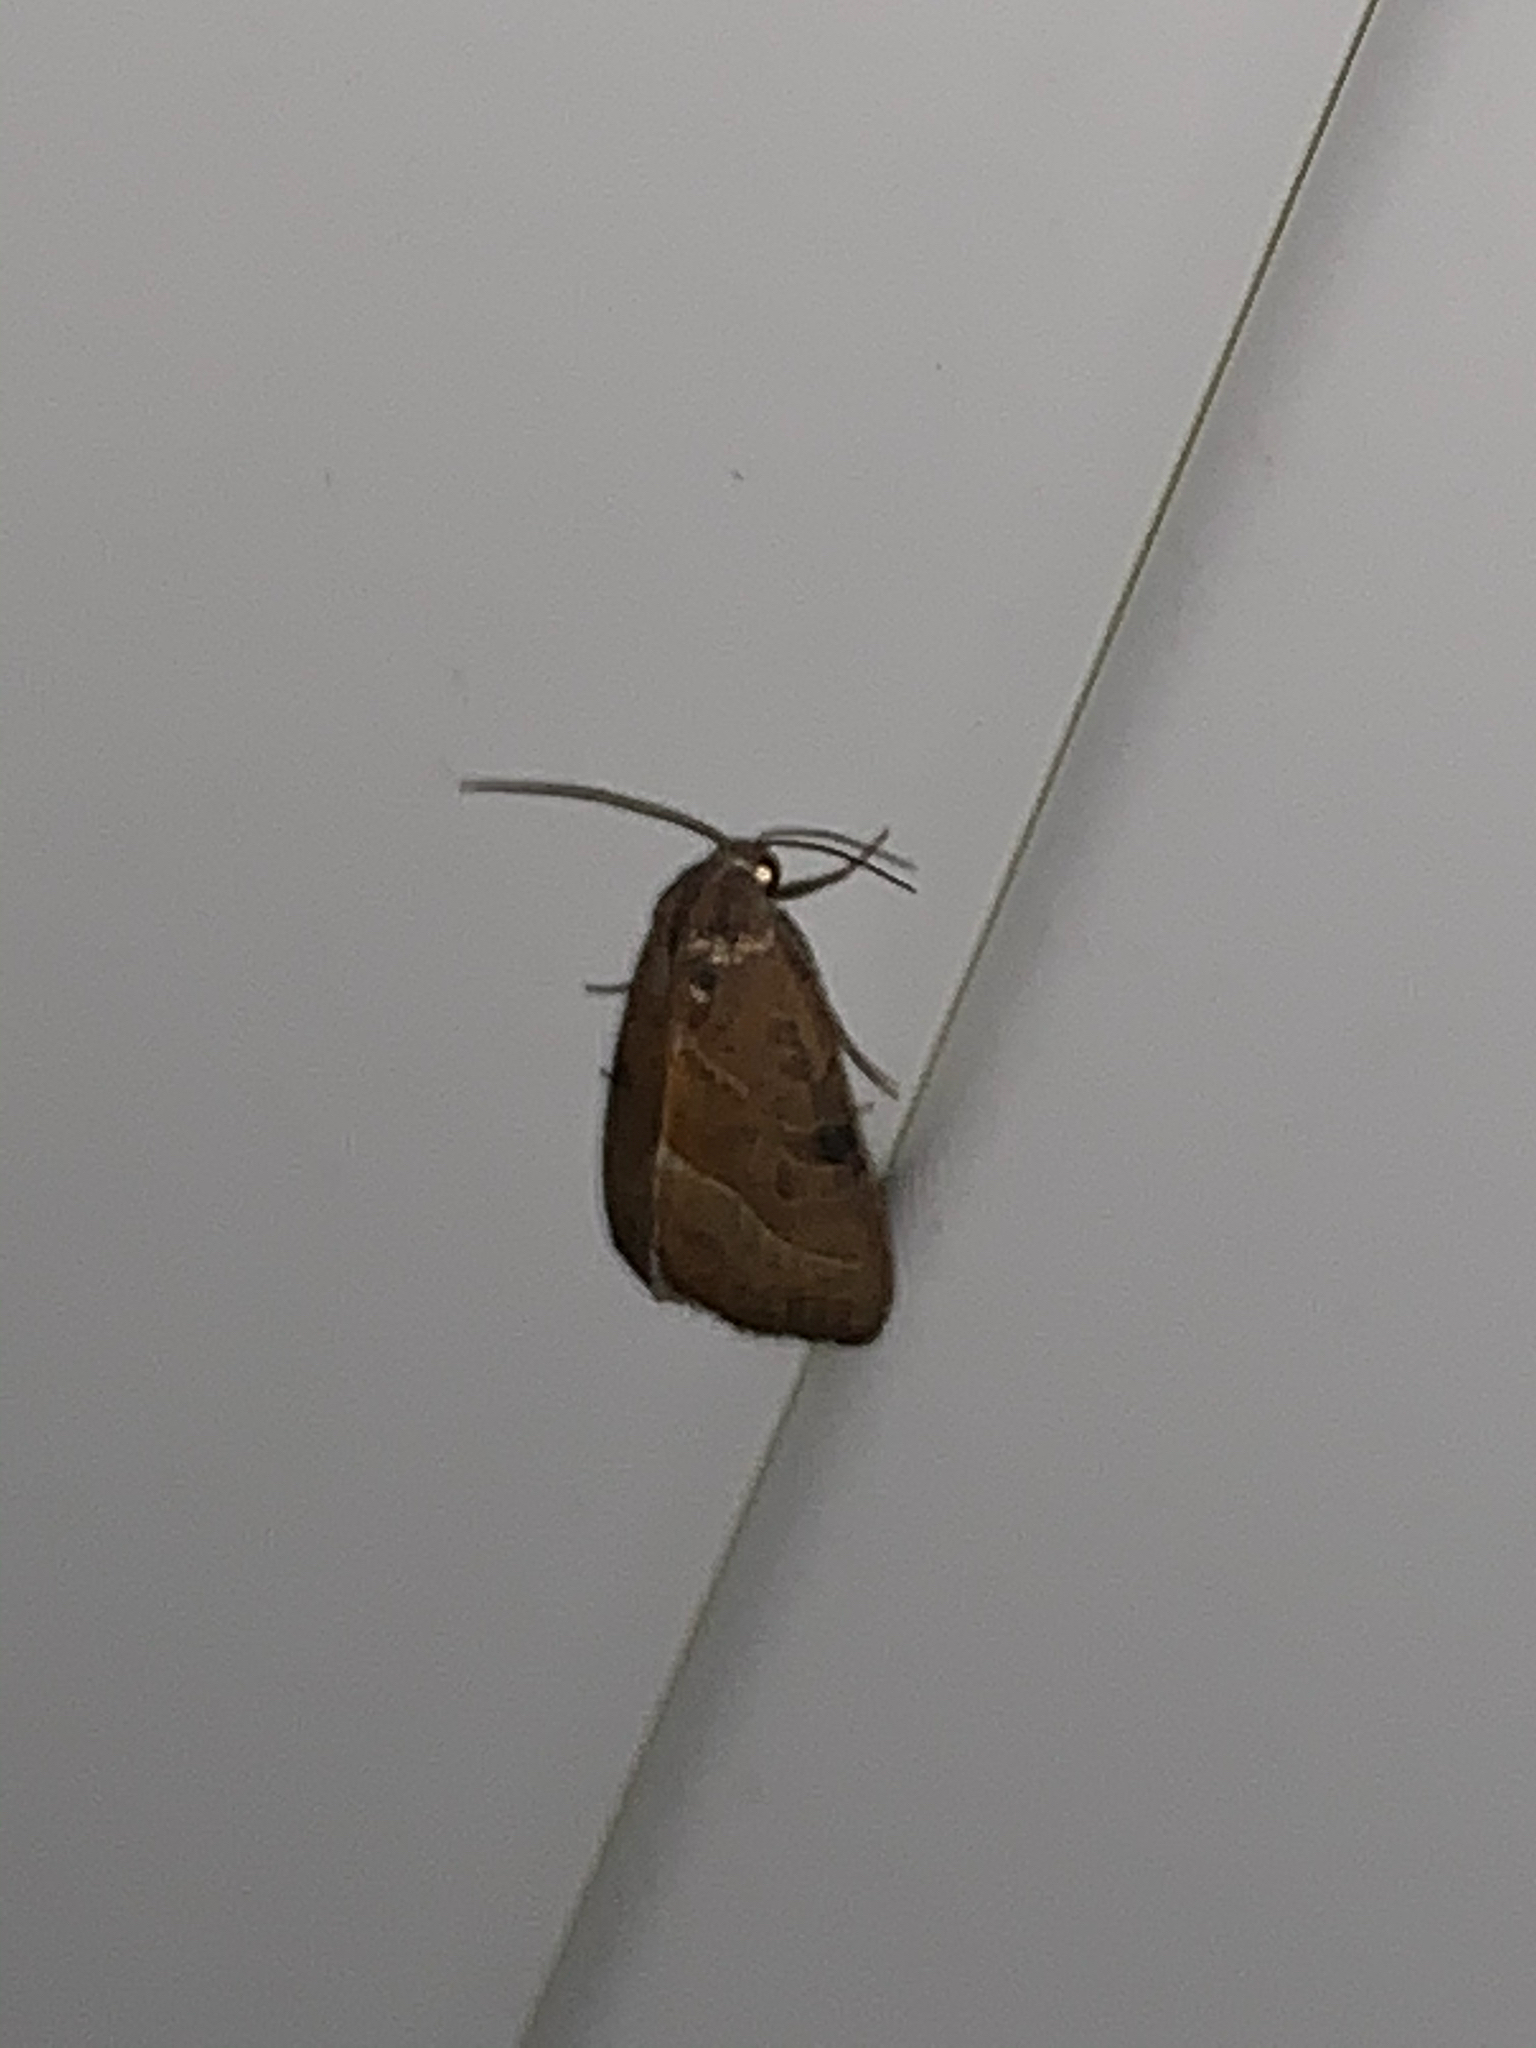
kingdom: Animalia
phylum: Arthropoda
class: Insecta
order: Lepidoptera
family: Noctuidae
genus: Galgula
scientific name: Galgula partita
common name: Wedgeling
